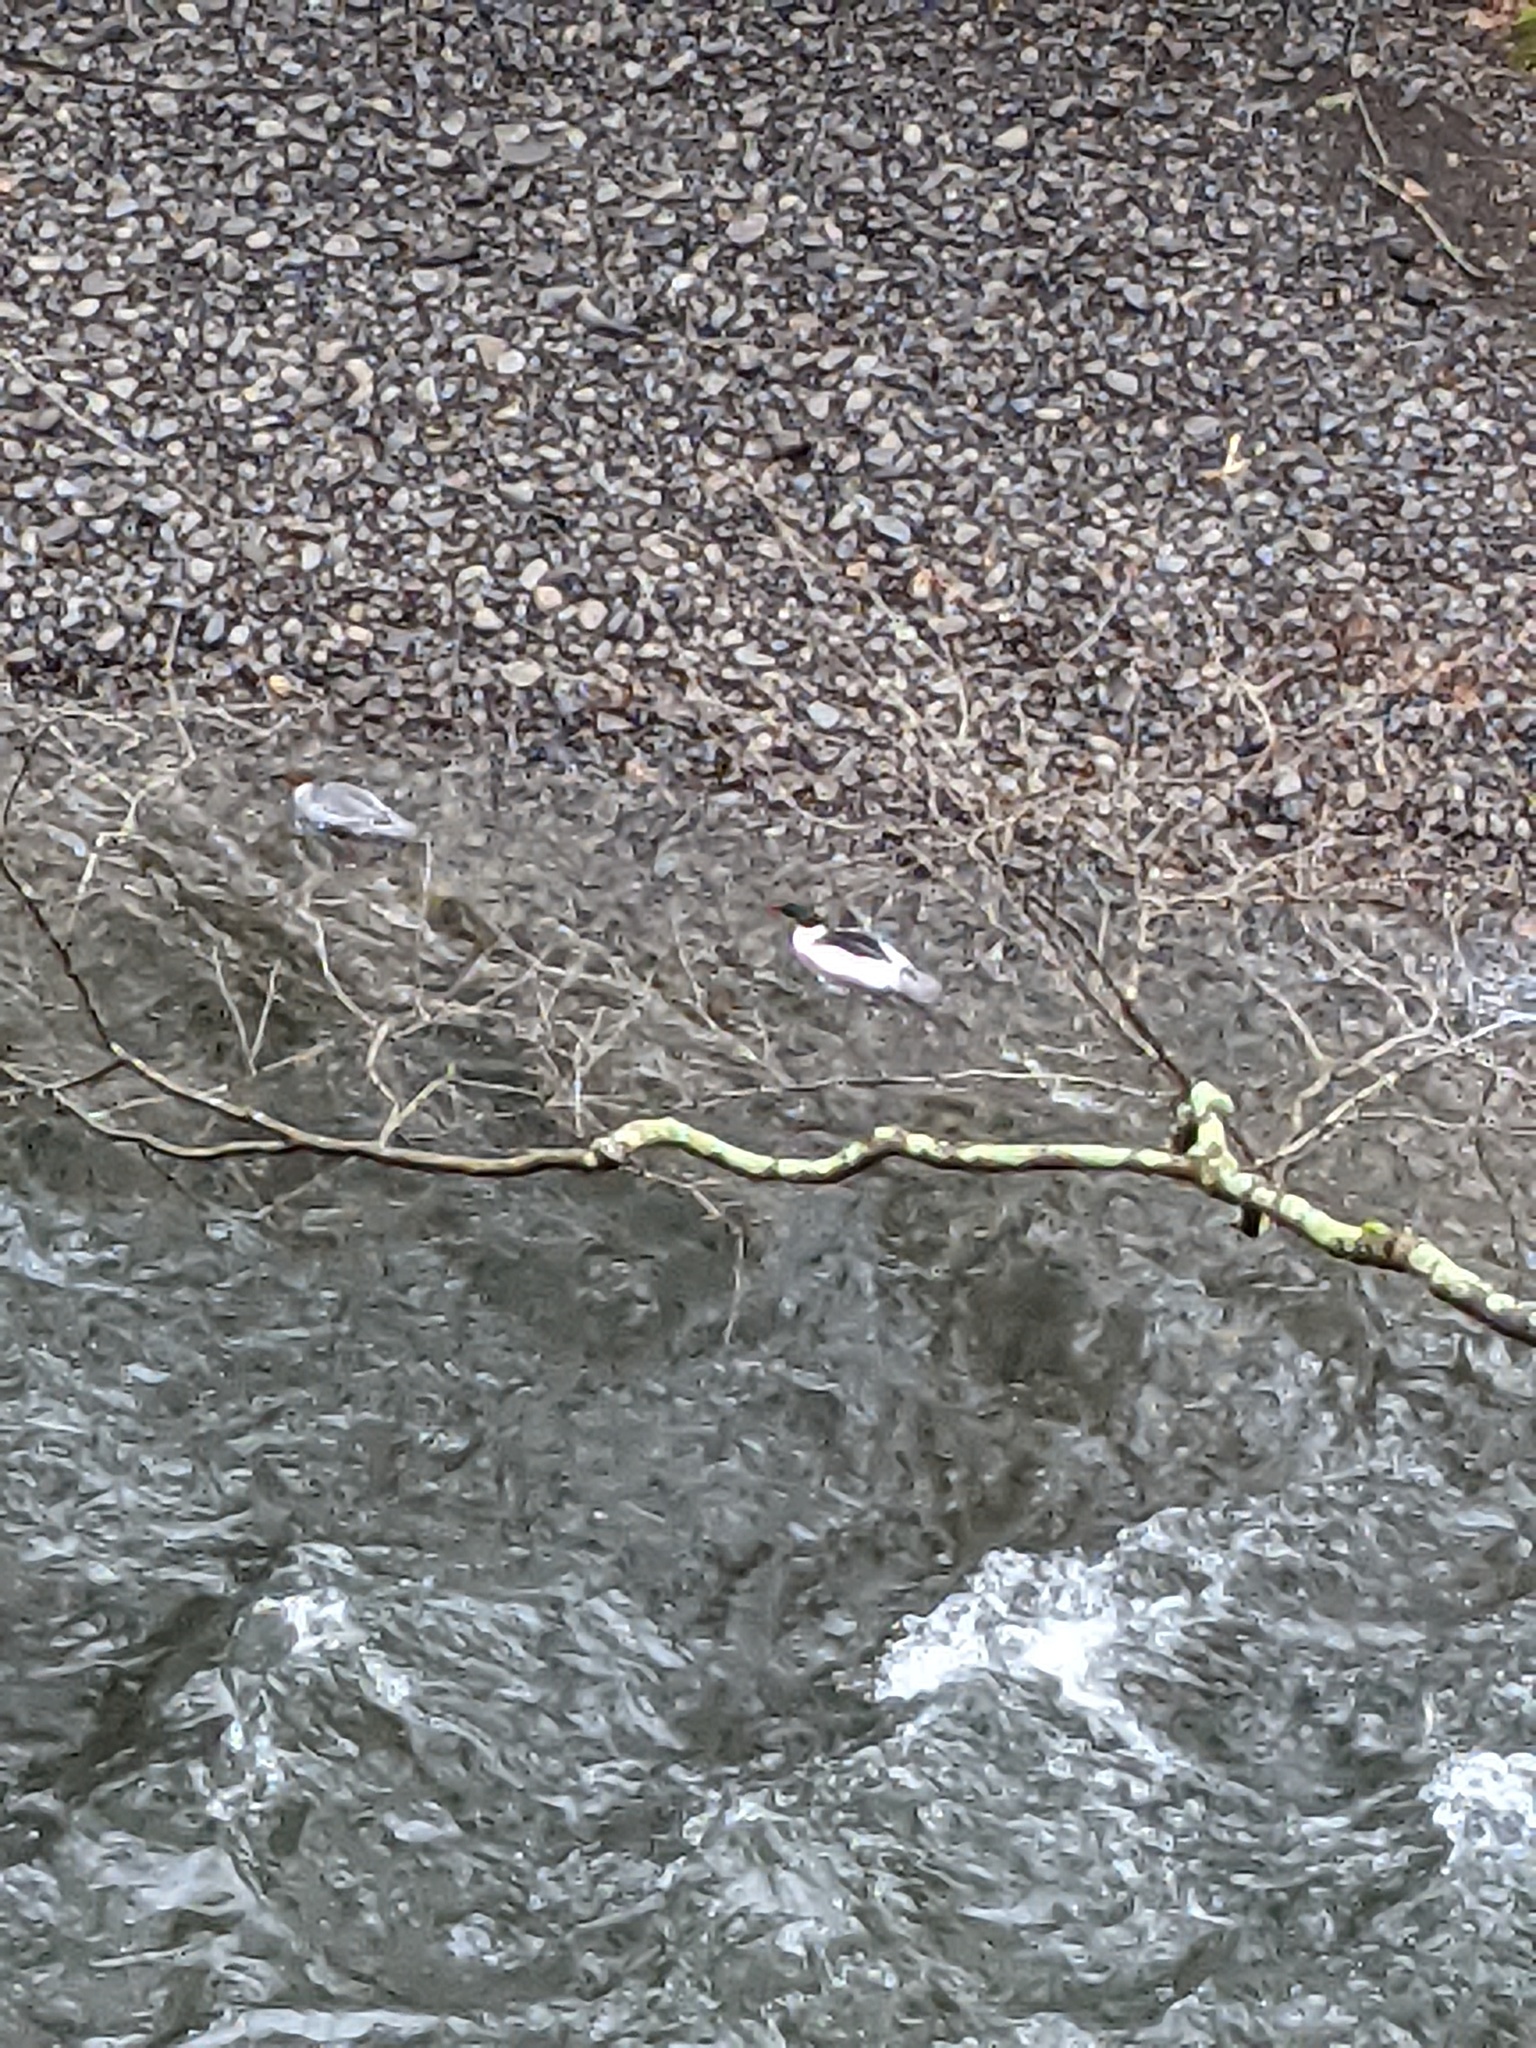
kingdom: Animalia
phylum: Chordata
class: Aves
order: Anseriformes
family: Anatidae
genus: Mergus
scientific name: Mergus merganser
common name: Common merganser
